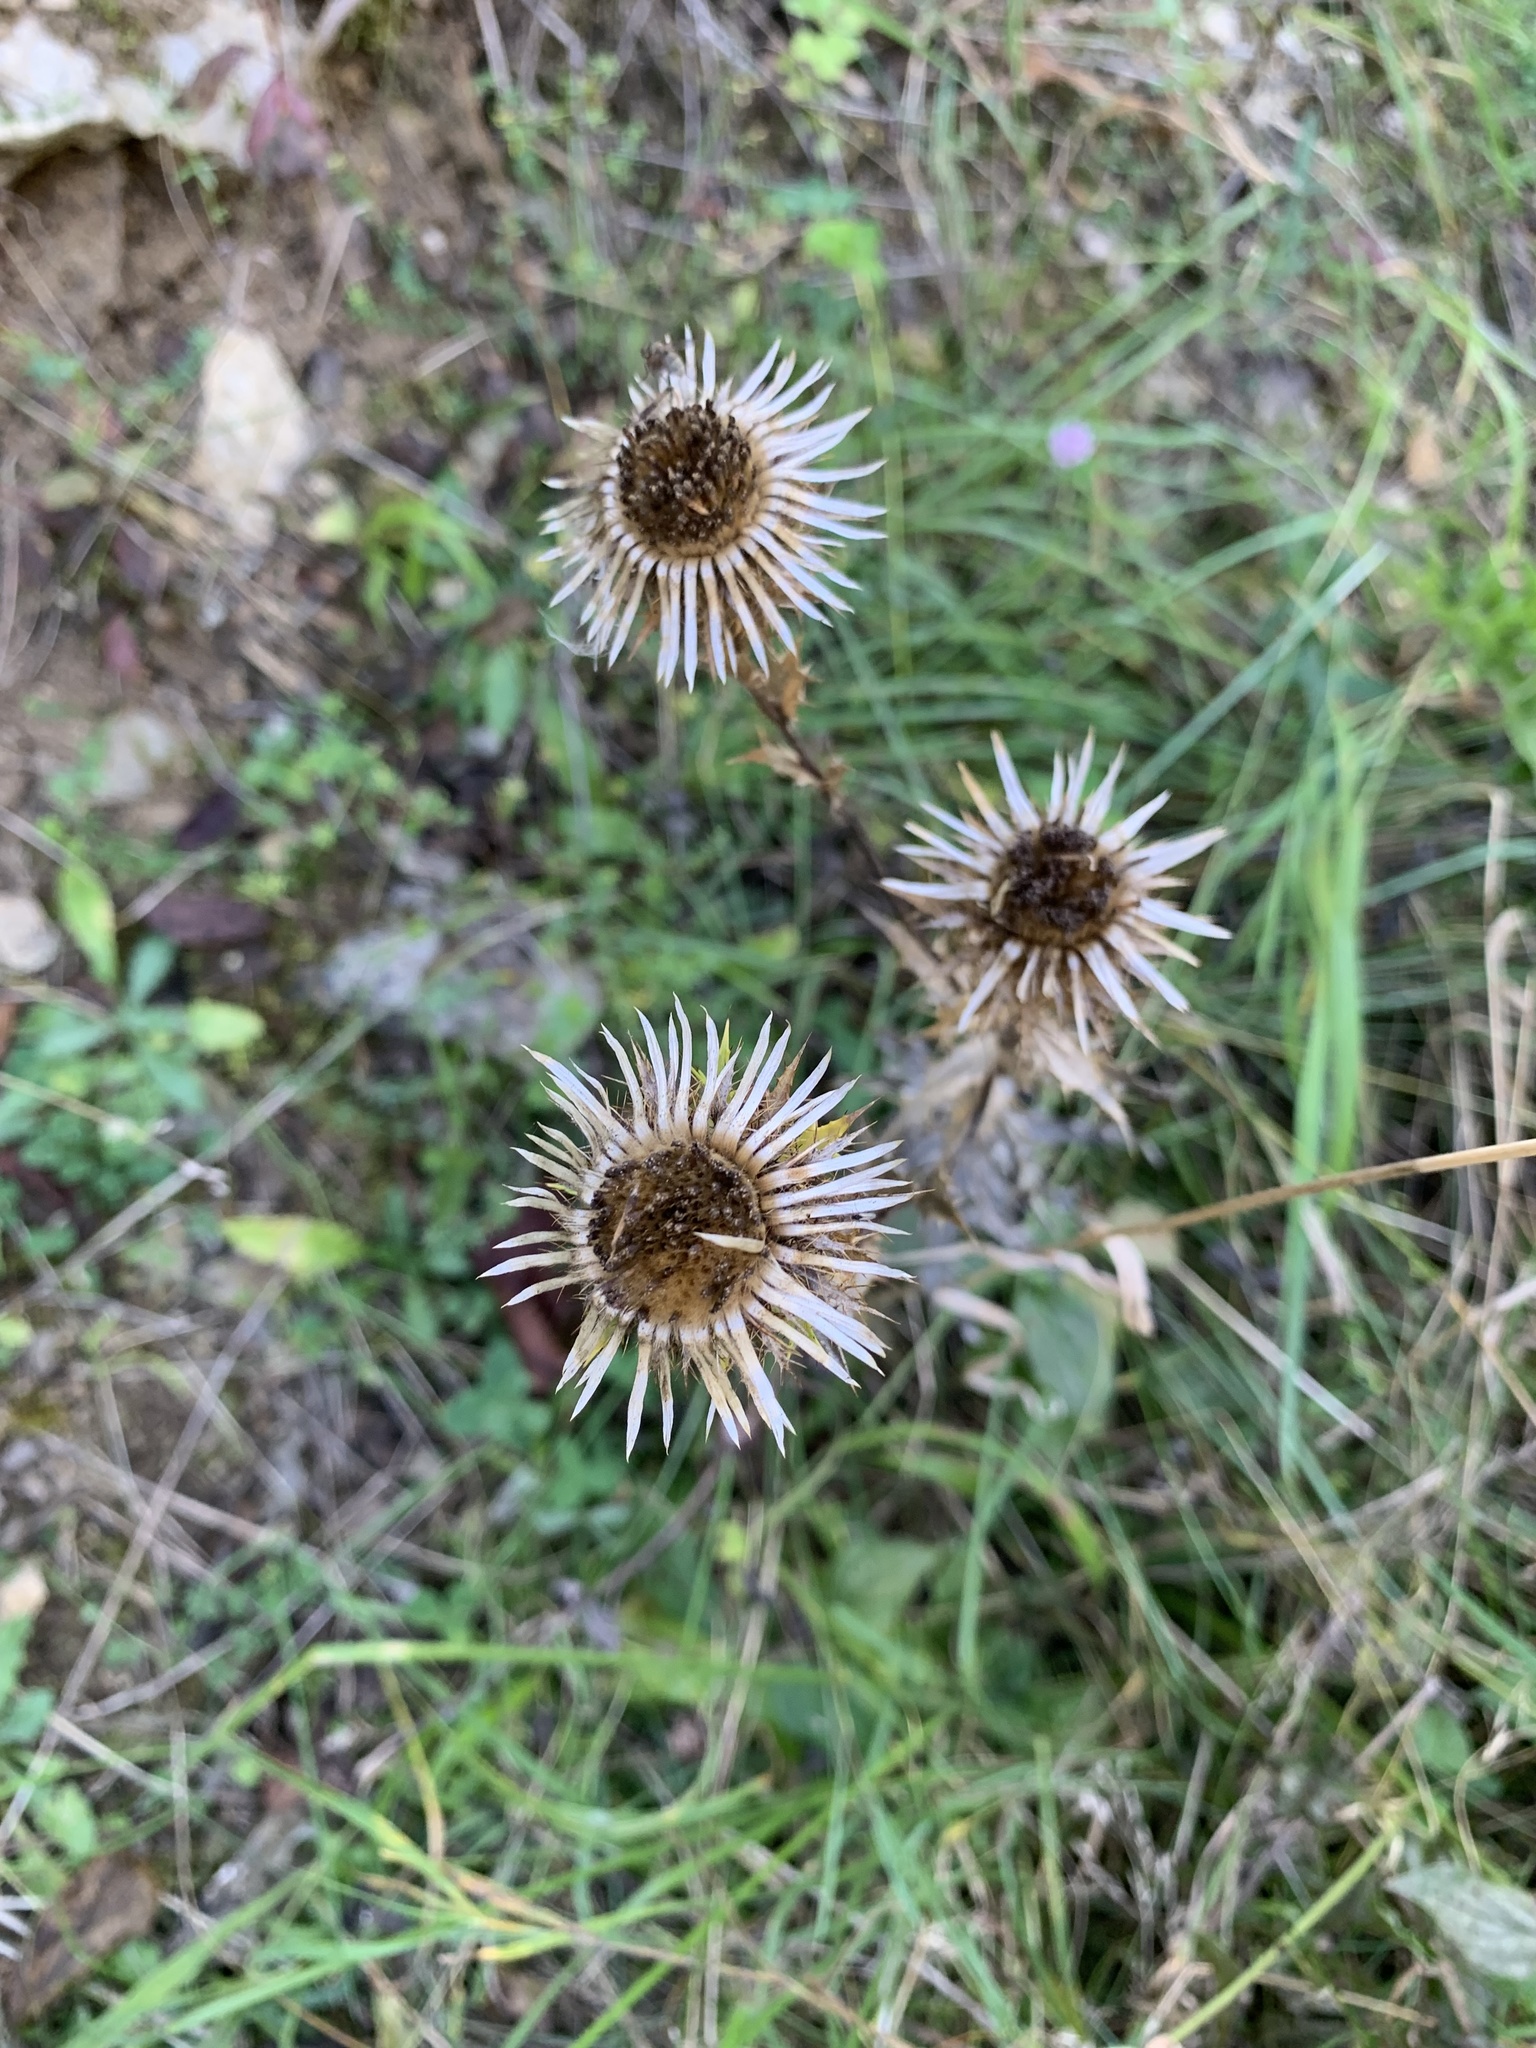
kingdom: Plantae
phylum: Tracheophyta
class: Magnoliopsida
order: Asterales
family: Asteraceae
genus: Carlina
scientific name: Carlina vulgaris
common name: Carline thistle
